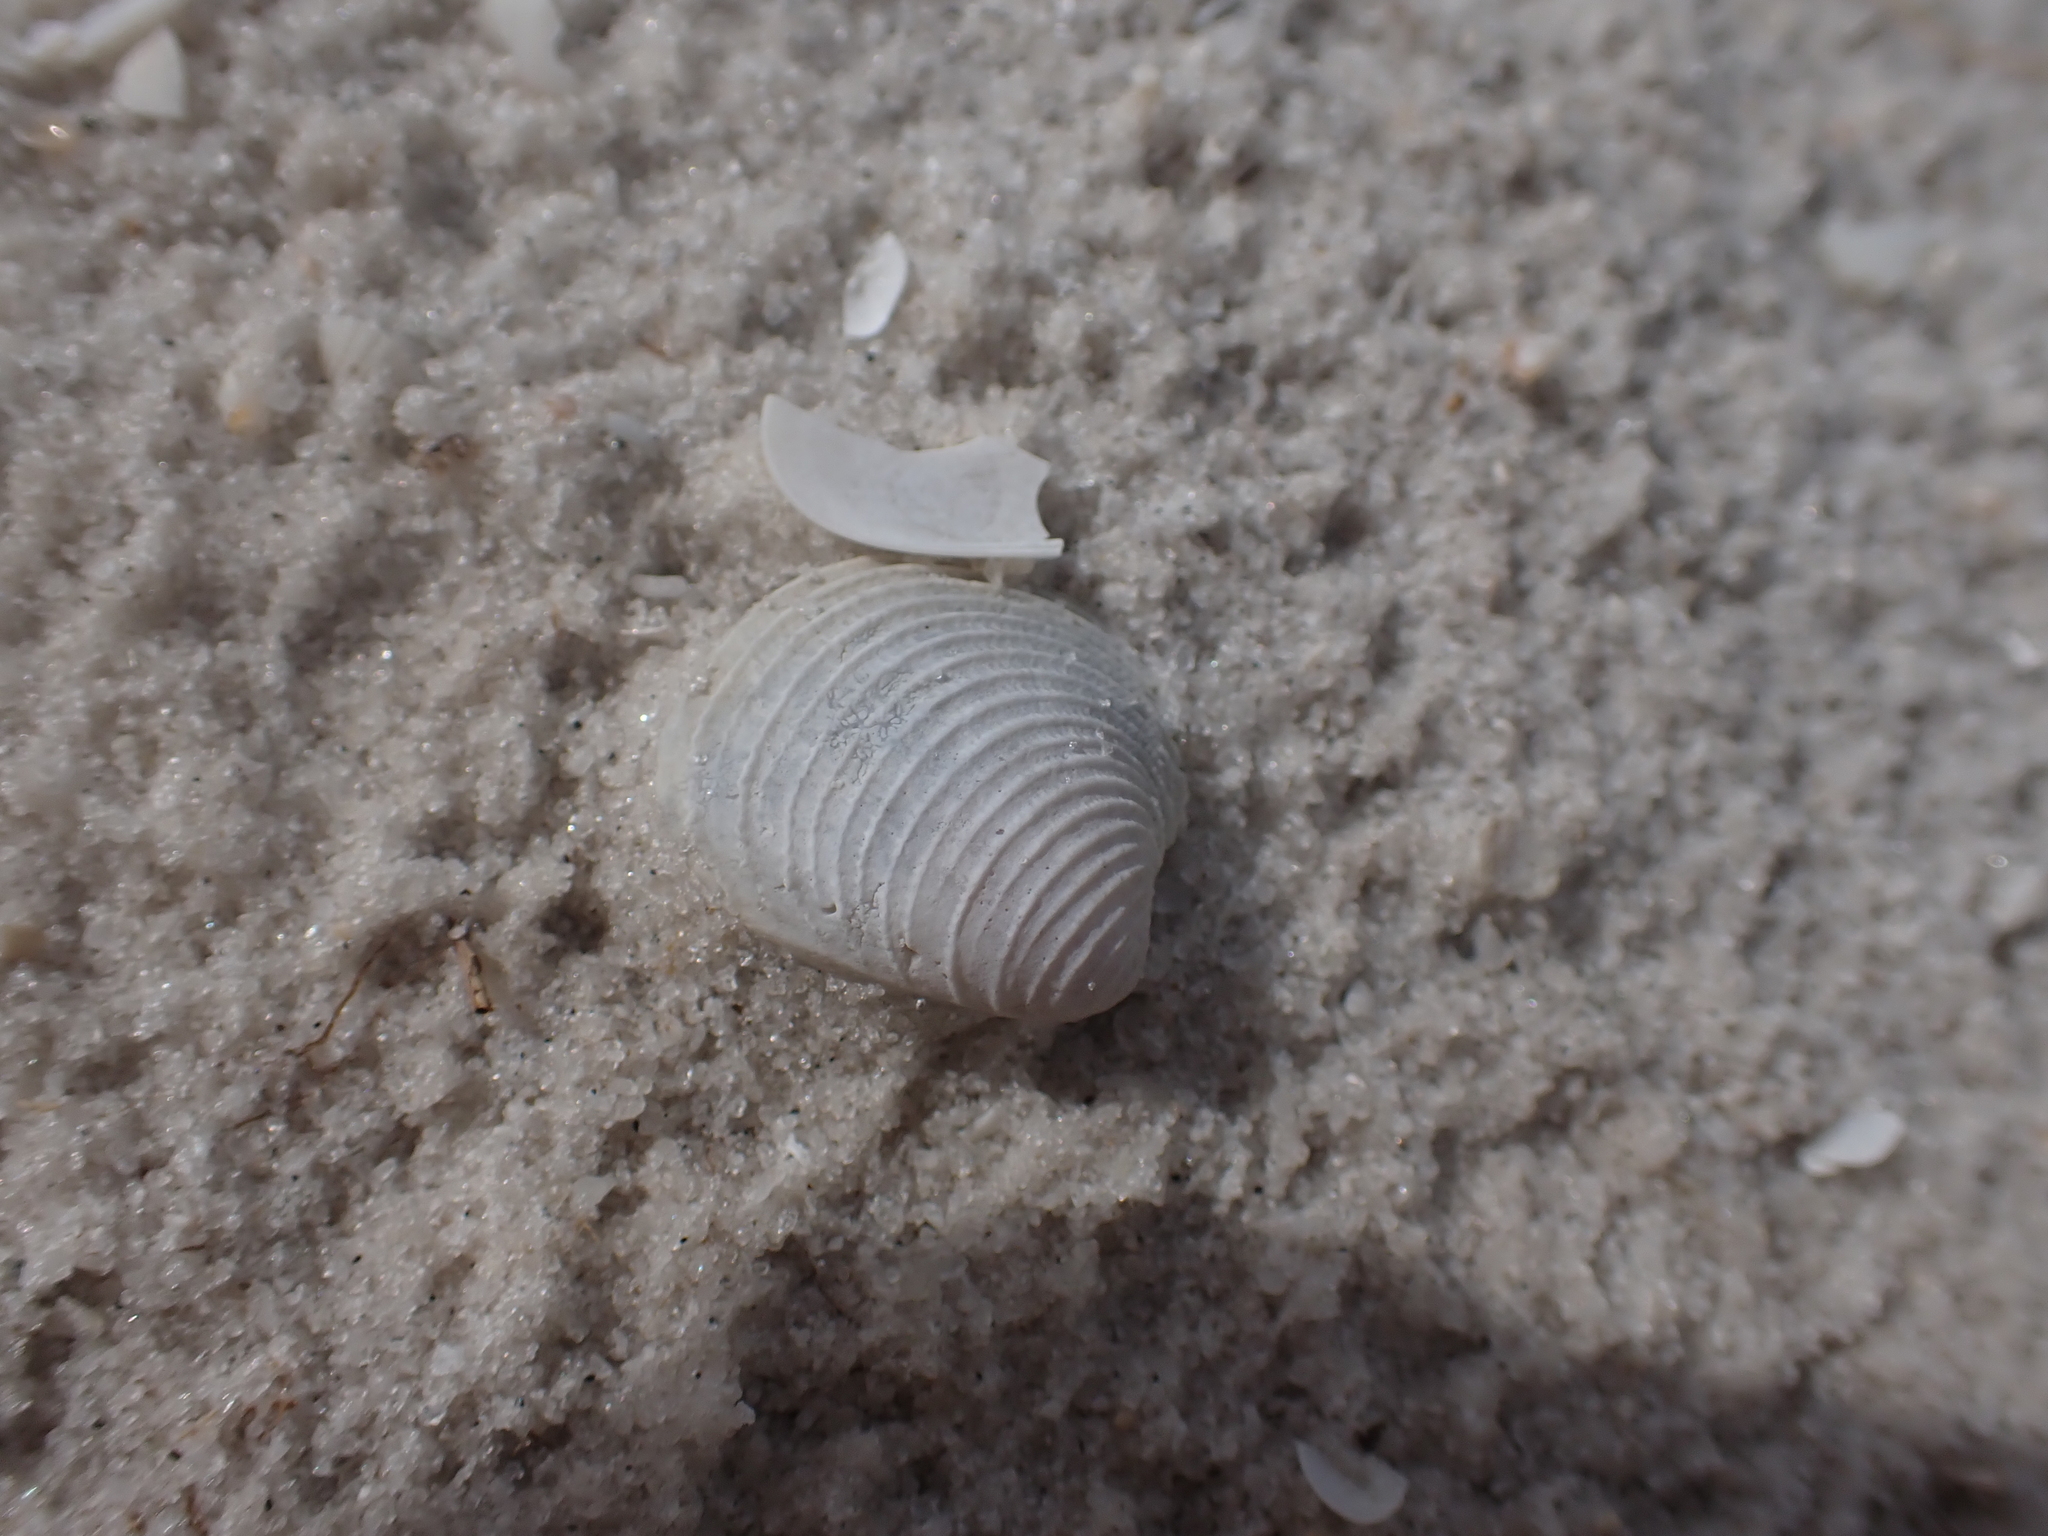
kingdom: Animalia
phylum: Mollusca
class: Bivalvia
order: Venerida
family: Veneridae
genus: Chionopsis
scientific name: Chionopsis intapurpurea
